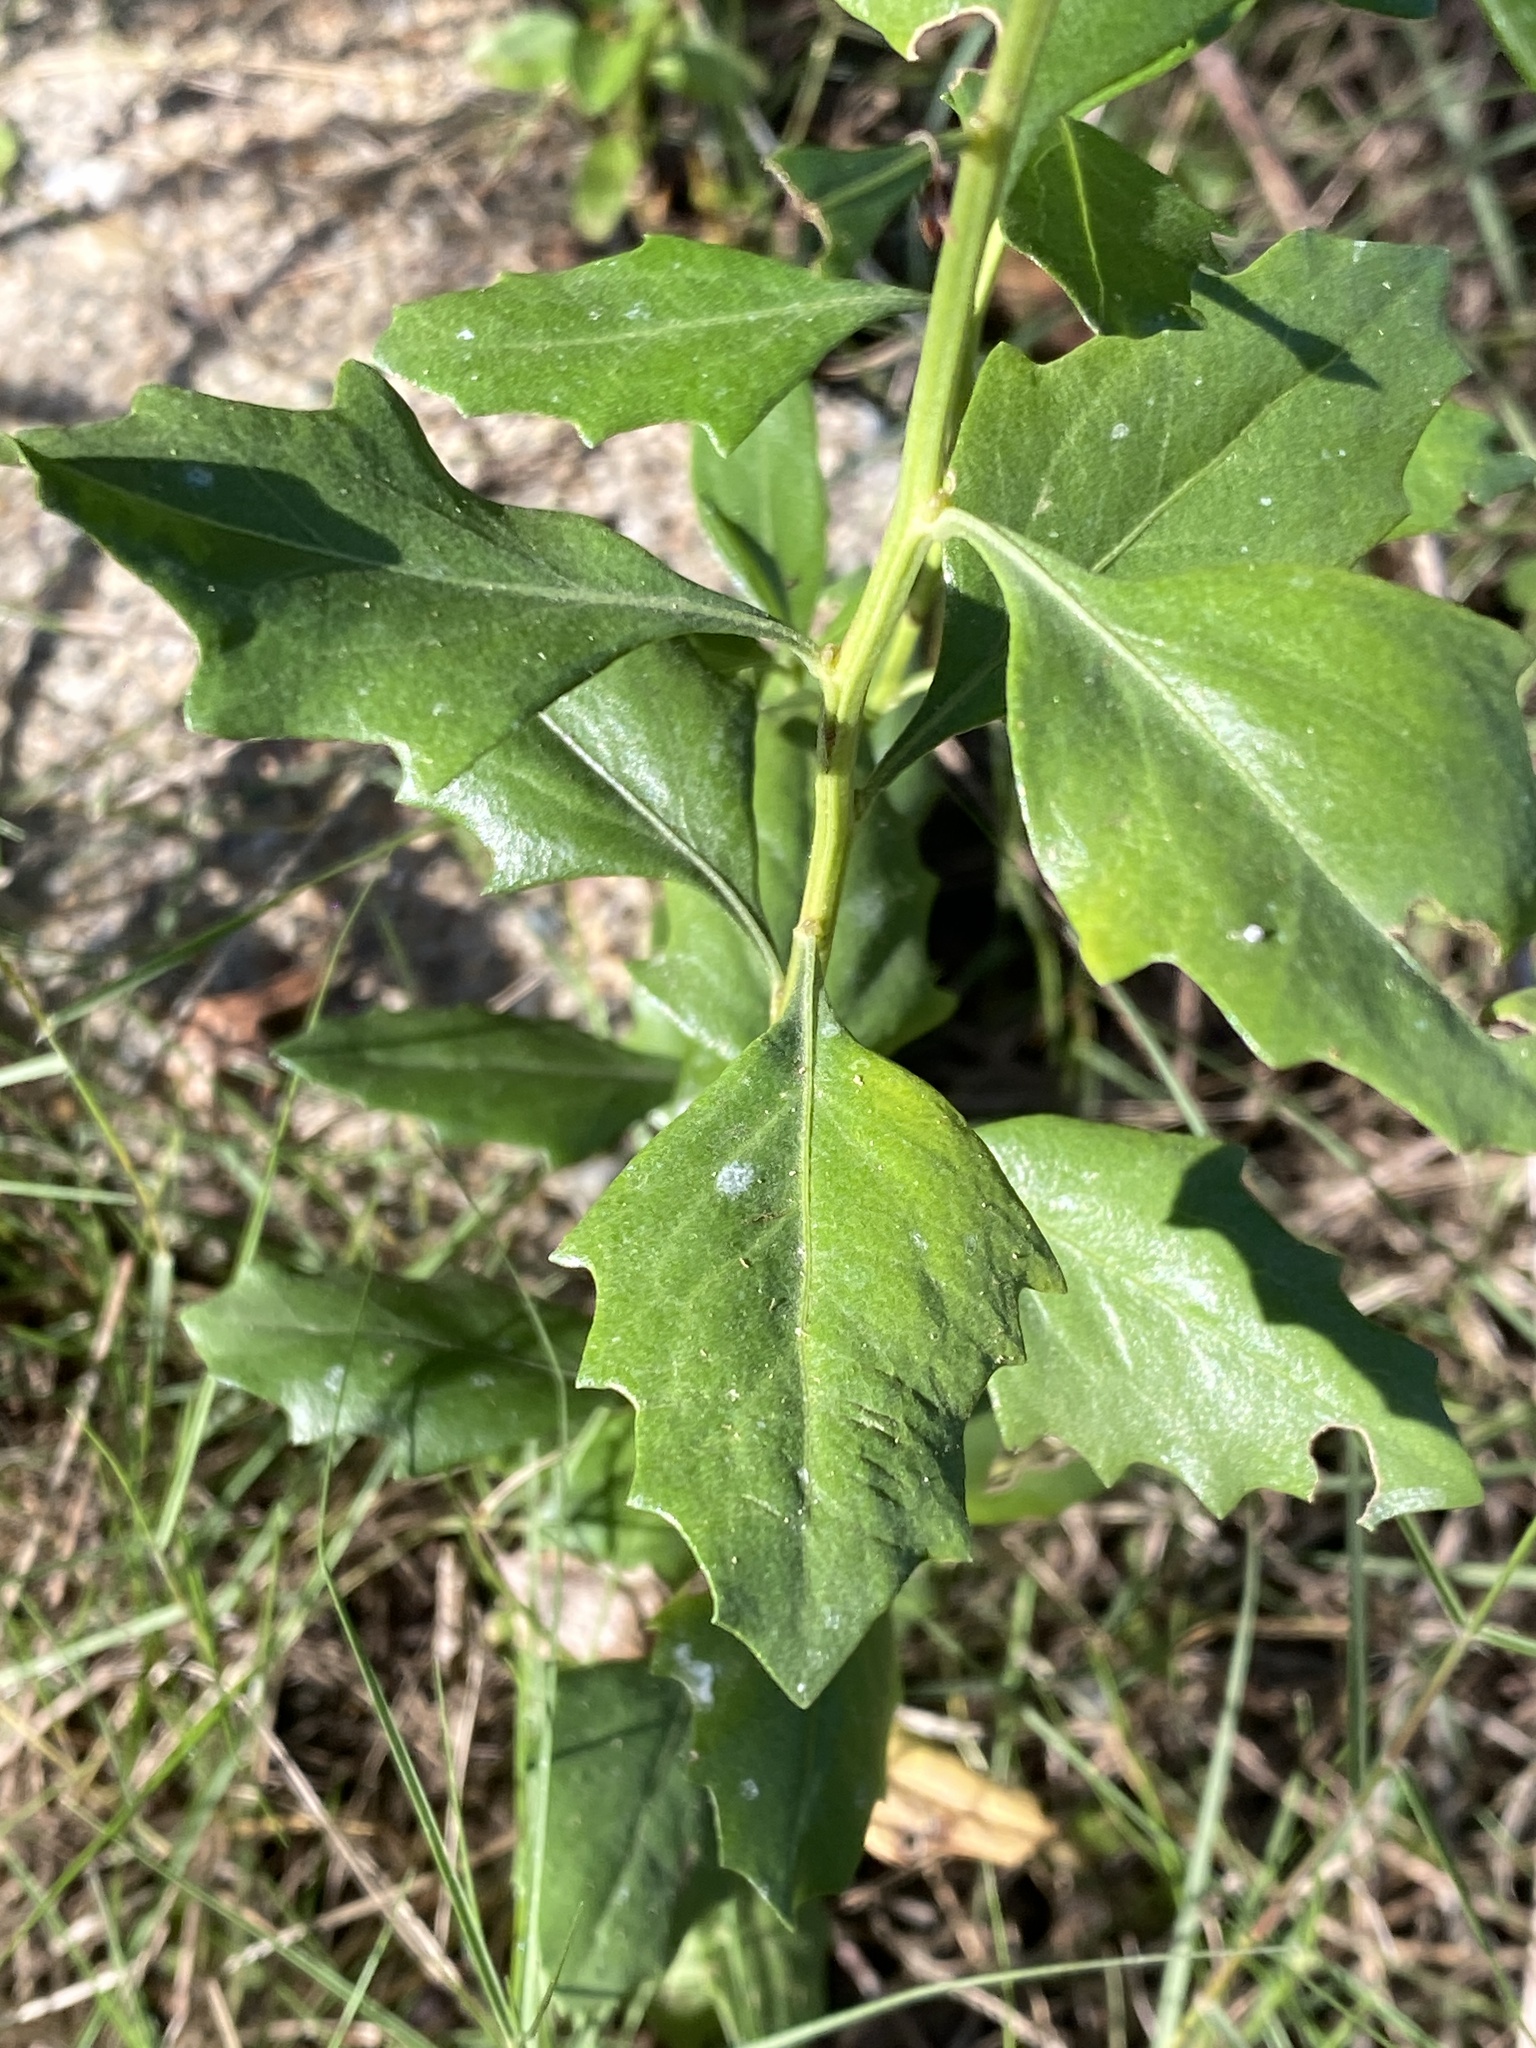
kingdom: Plantae
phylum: Tracheophyta
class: Magnoliopsida
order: Asterales
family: Asteraceae
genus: Baccharis
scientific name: Baccharis halimifolia
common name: Eastern baccharis
